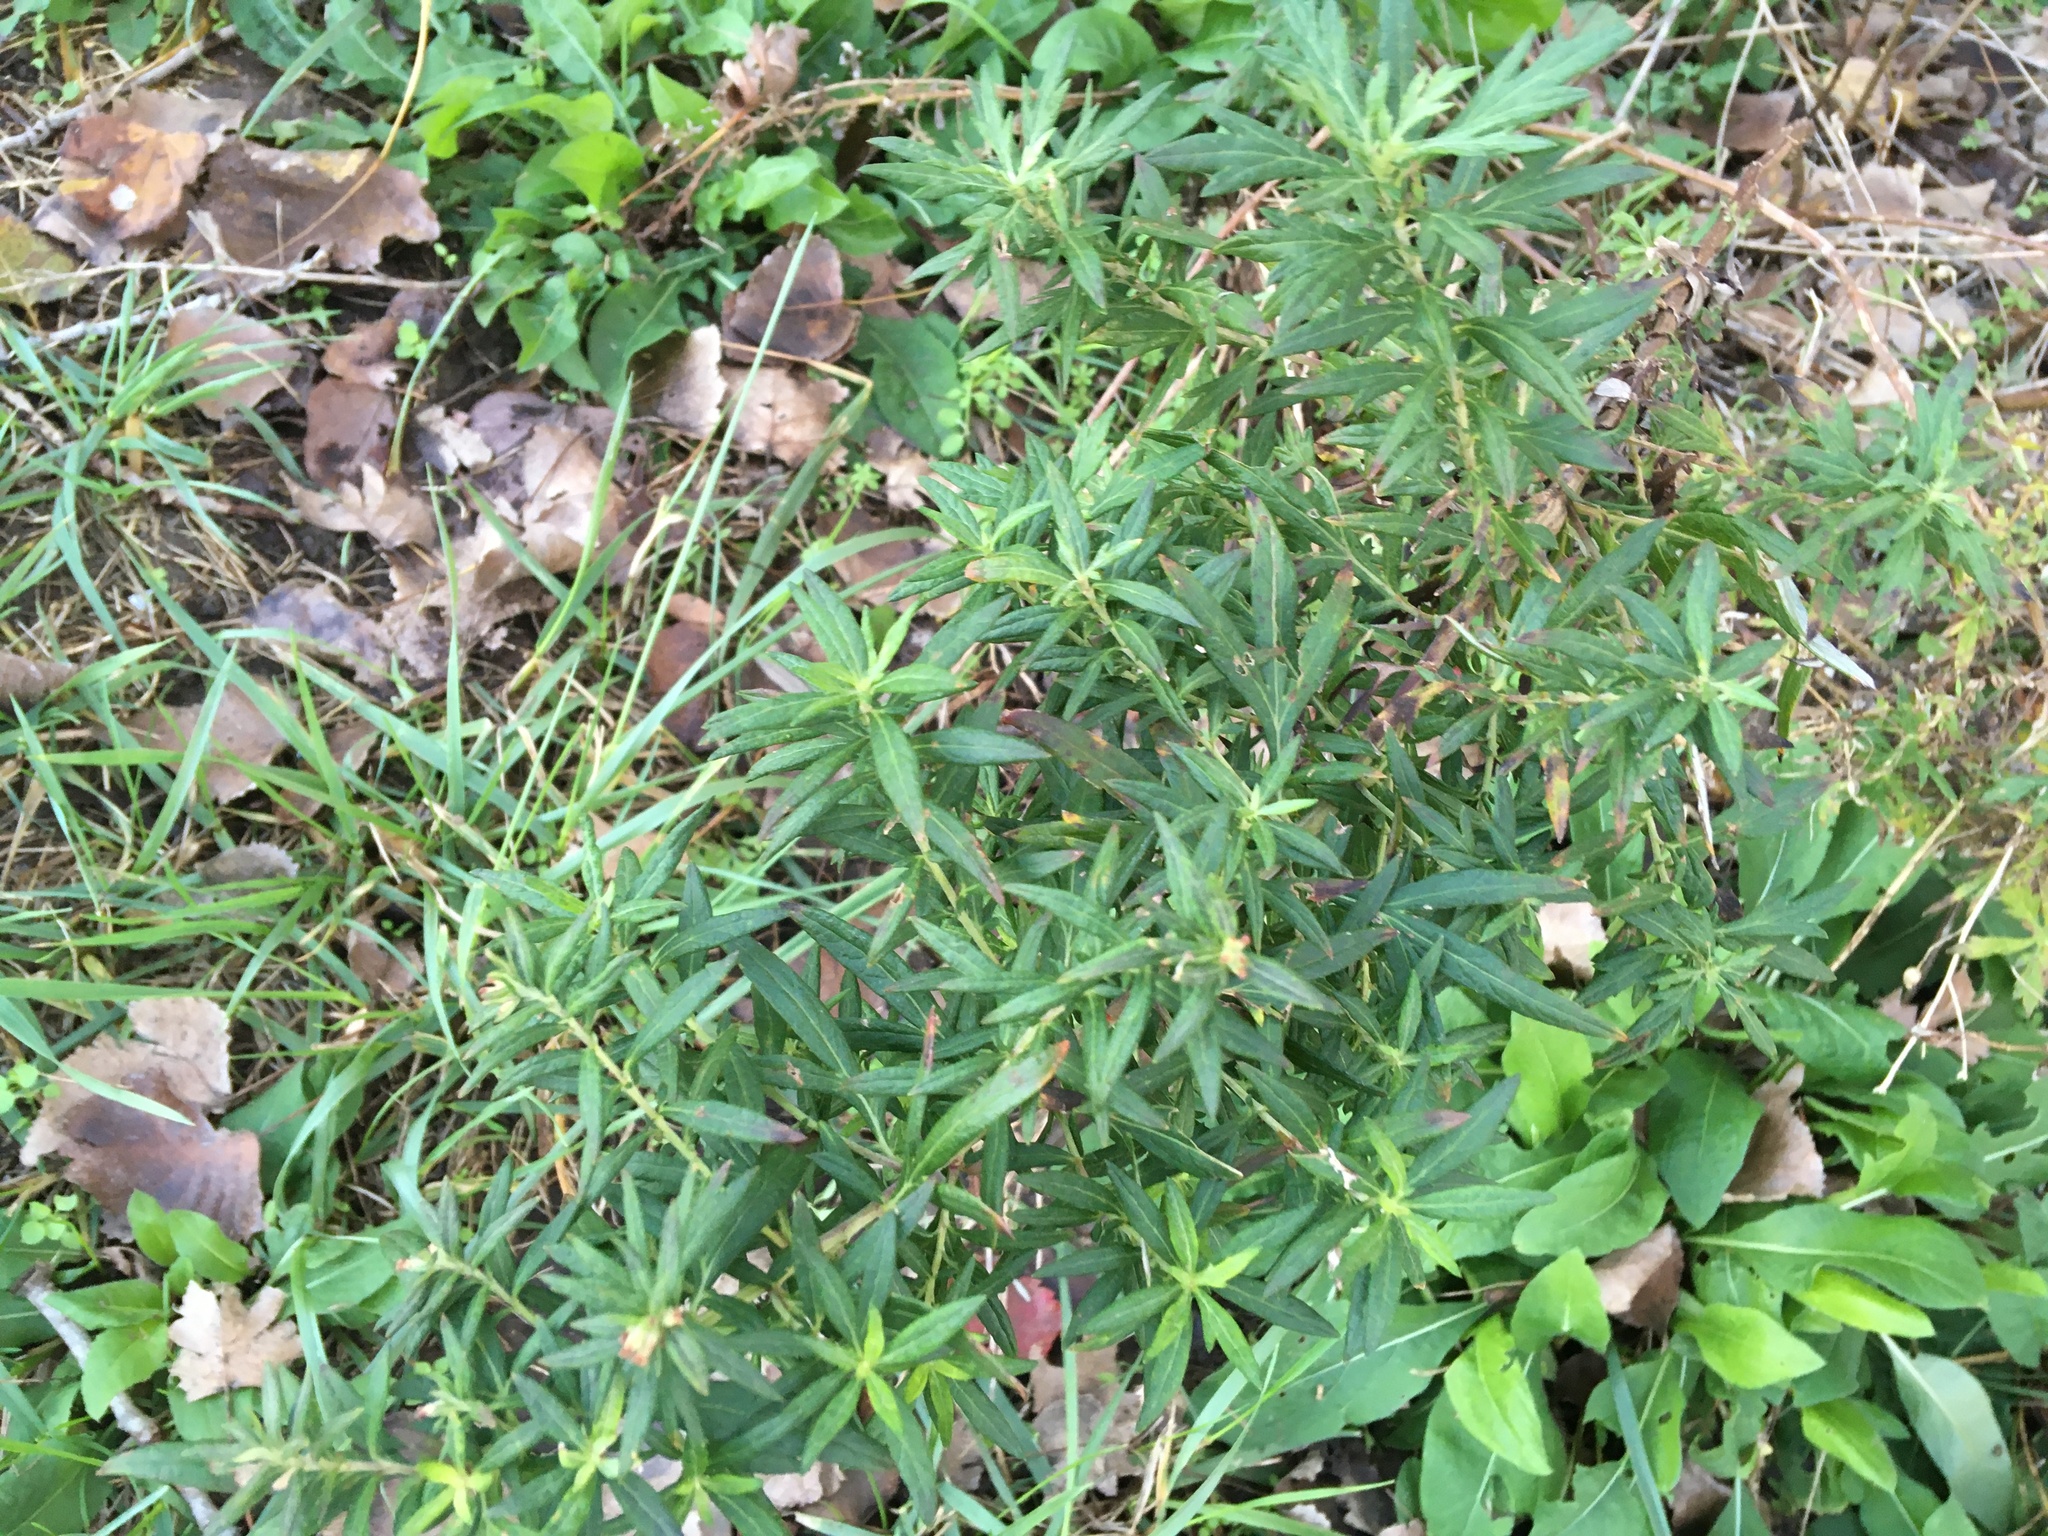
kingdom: Plantae
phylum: Tracheophyta
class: Magnoliopsida
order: Asterales
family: Asteraceae
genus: Artemisia
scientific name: Artemisia vulgaris
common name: Mugwort
